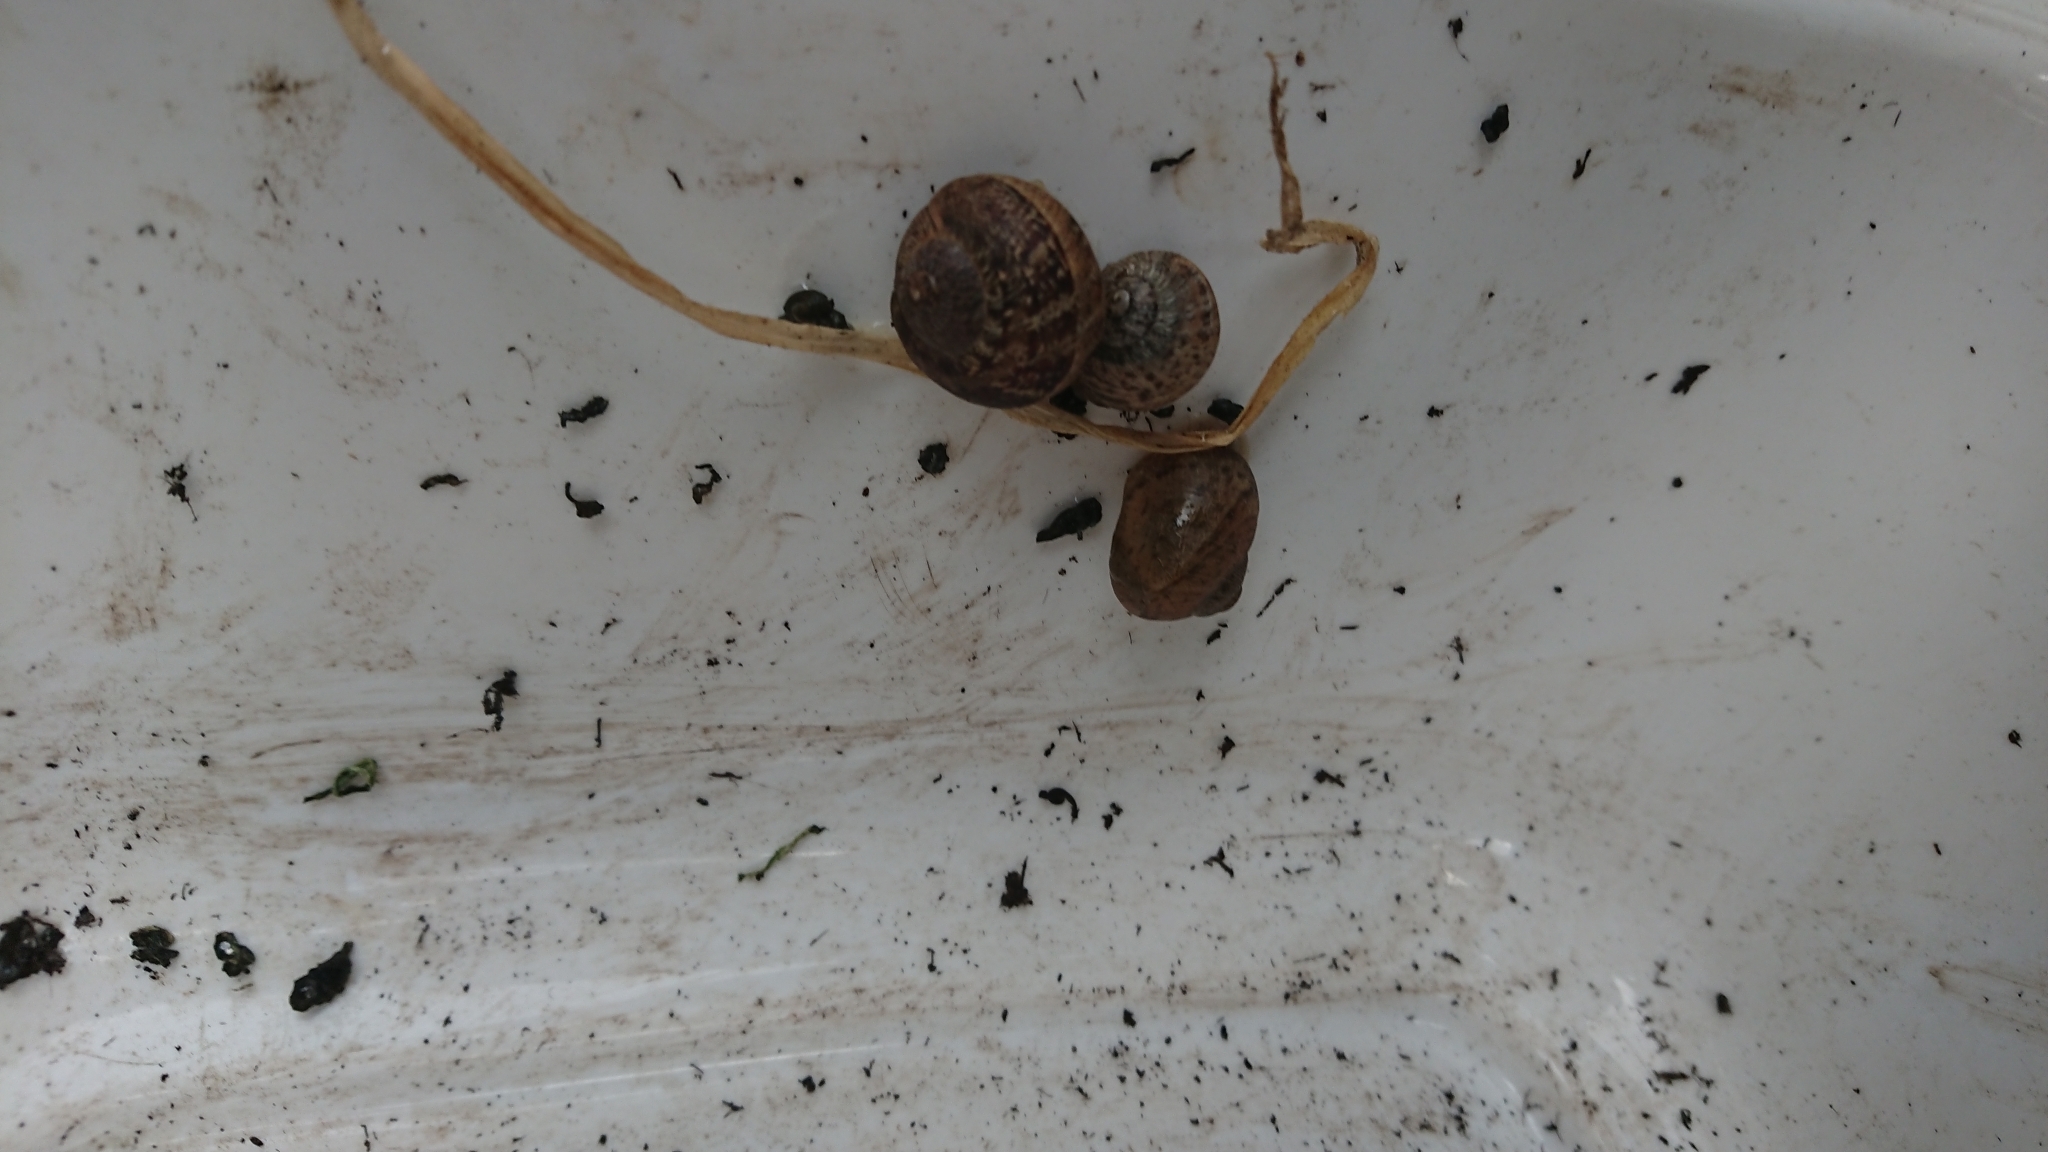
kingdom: Animalia
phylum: Mollusca
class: Gastropoda
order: Stylommatophora
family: Helicidae
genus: Cornu
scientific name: Cornu aspersum
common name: Brown garden snail
